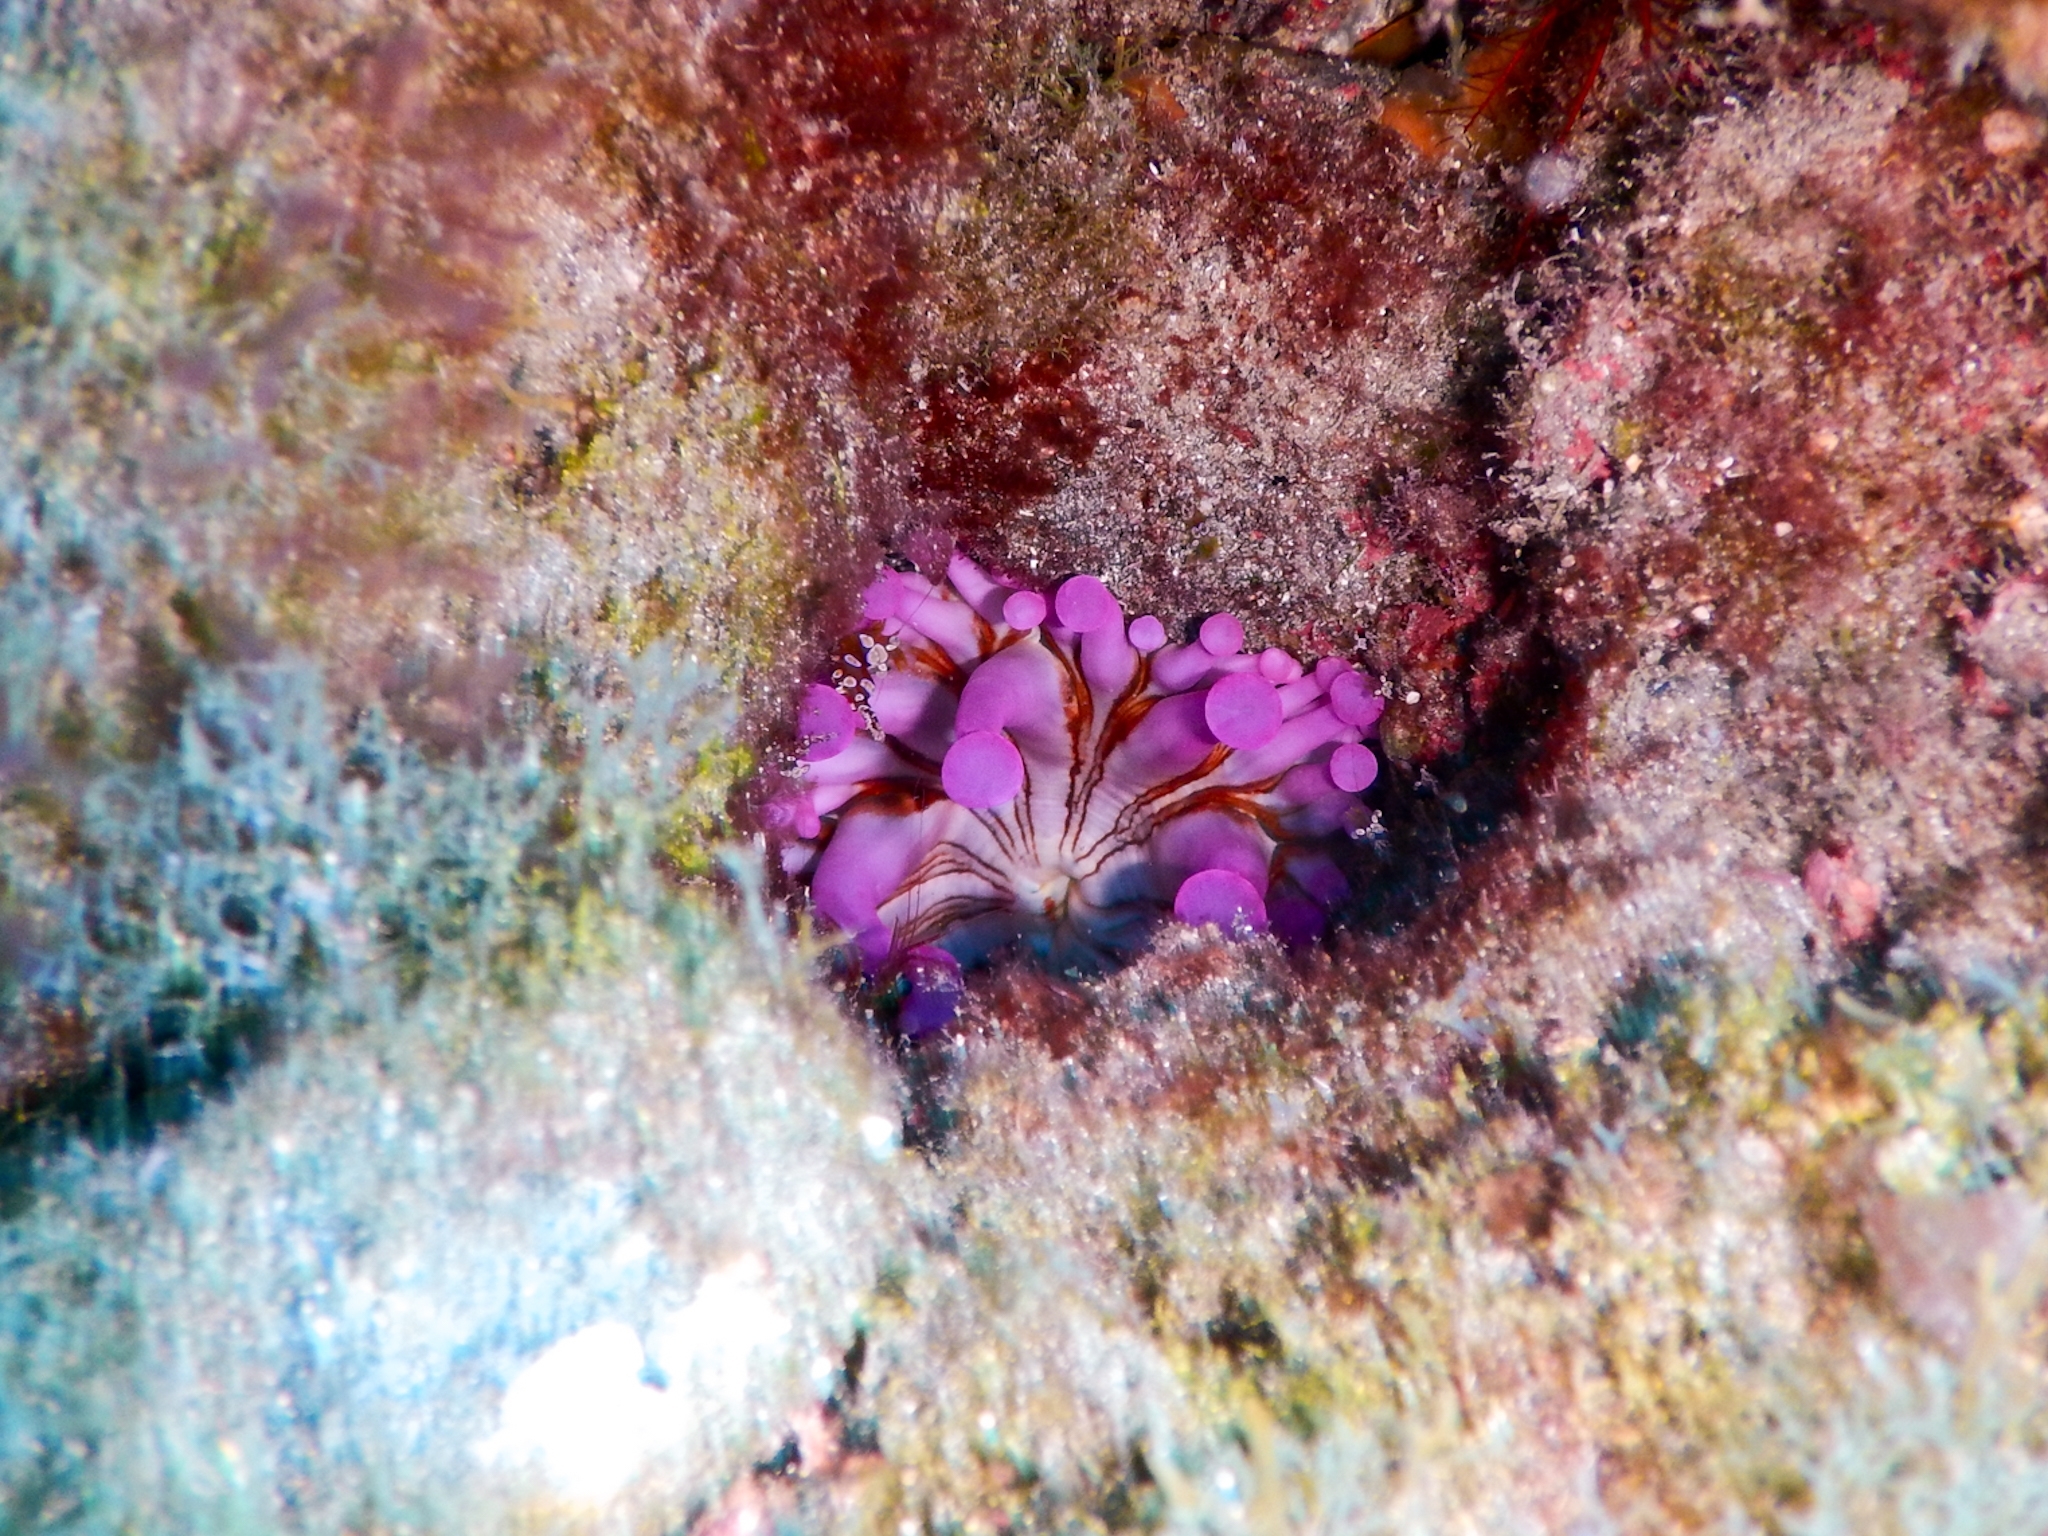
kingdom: Animalia
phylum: Cnidaria
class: Anthozoa
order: Actiniaria
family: Andvakiidae
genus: Telmatactis
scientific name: Telmatactis cricoides
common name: Blunt-tentacled anemone
